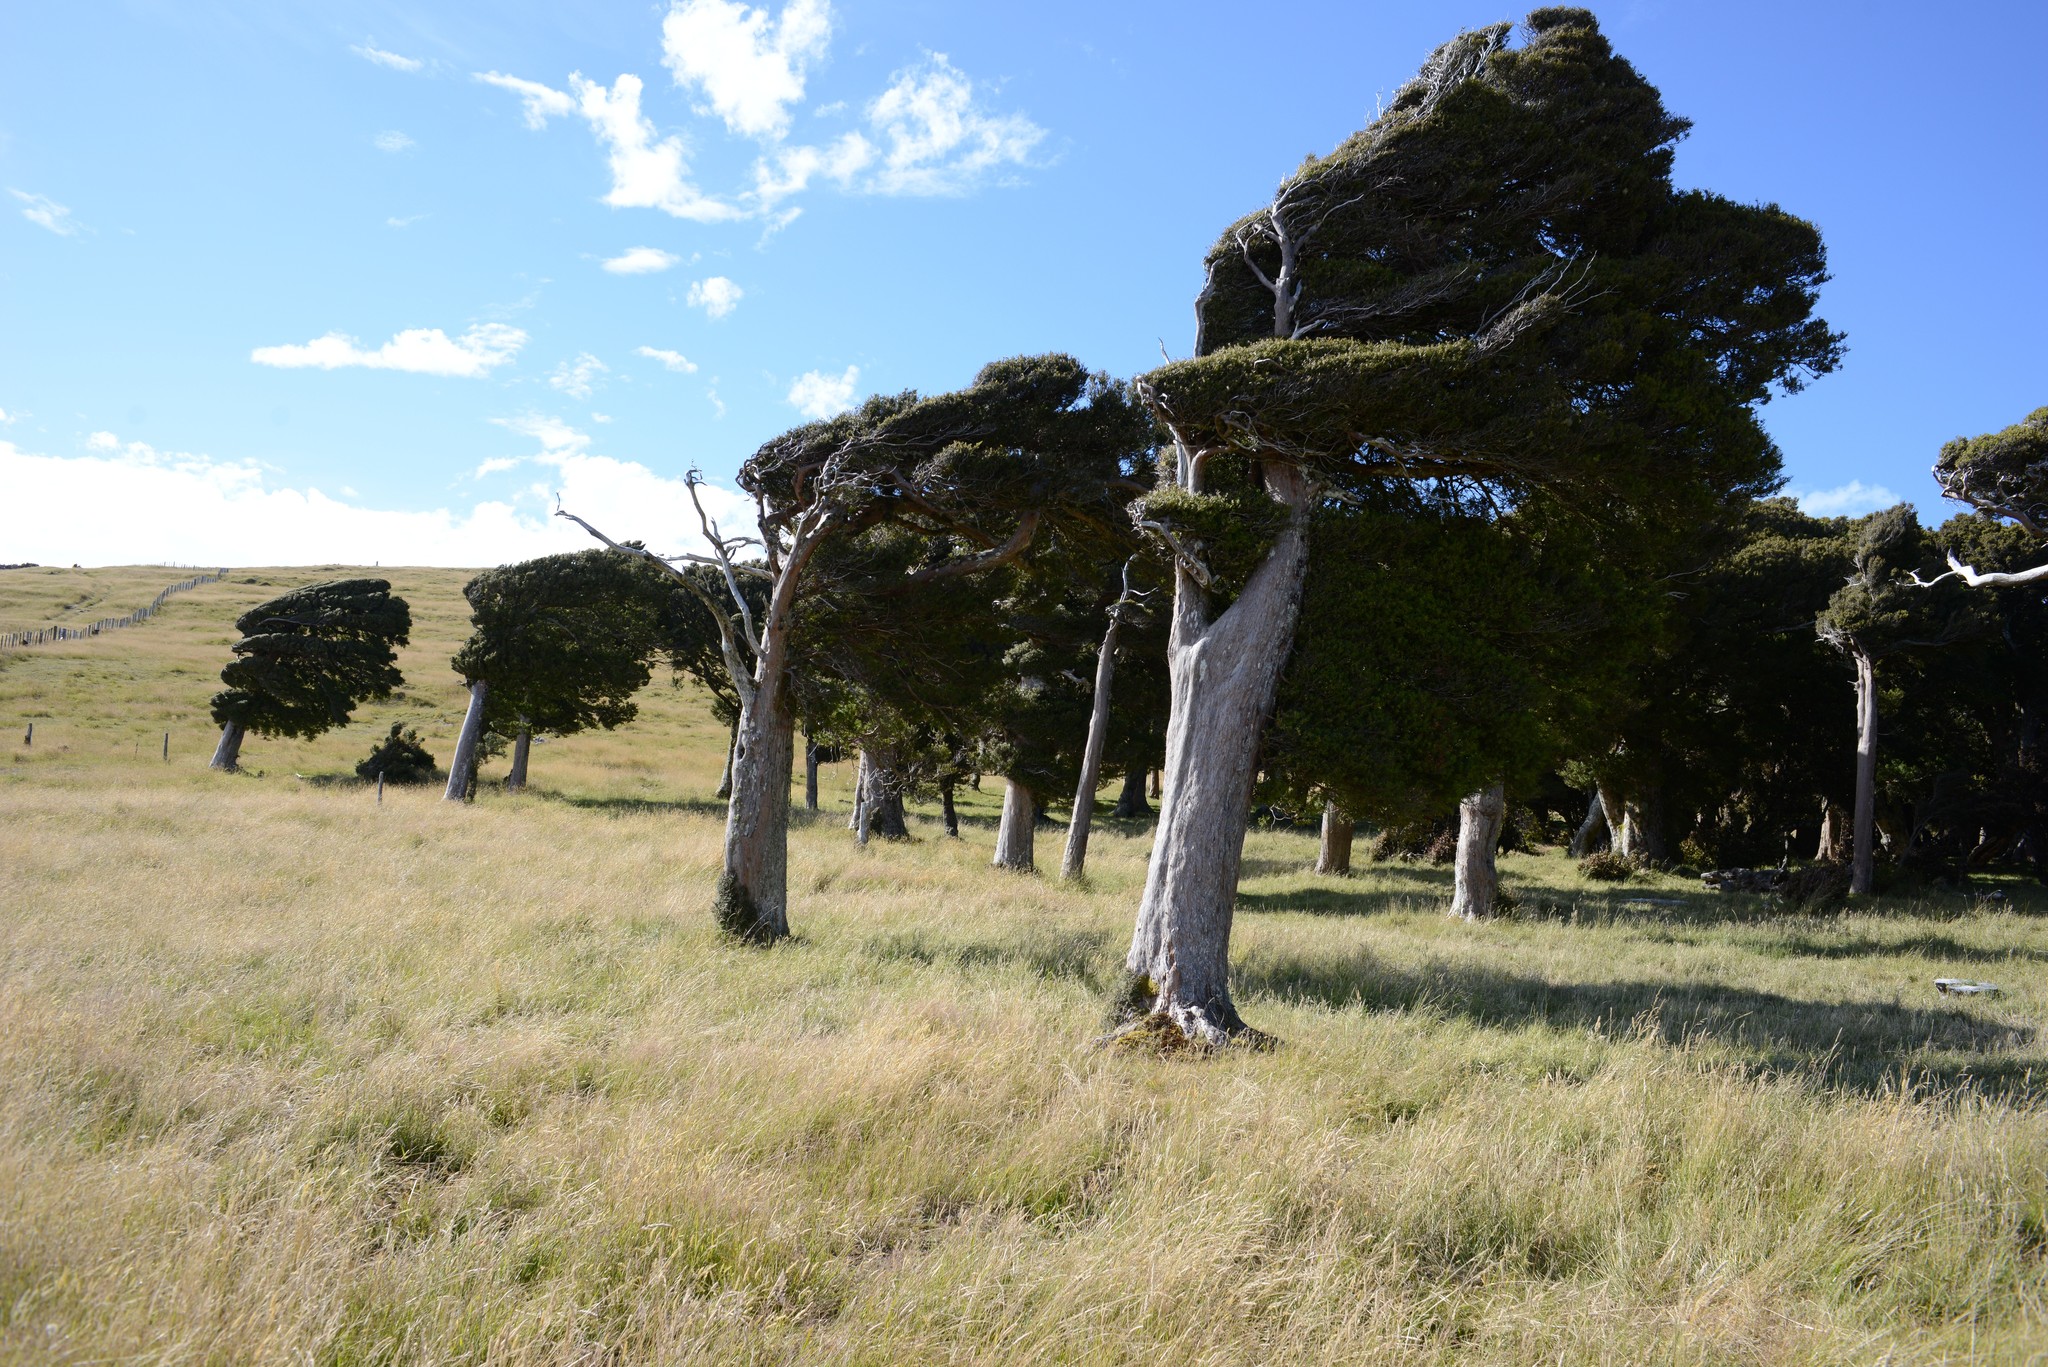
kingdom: Plantae
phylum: Tracheophyta
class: Pinopsida
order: Pinales
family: Podocarpaceae
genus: Podocarpus
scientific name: Podocarpus laetus
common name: Hall's totara
